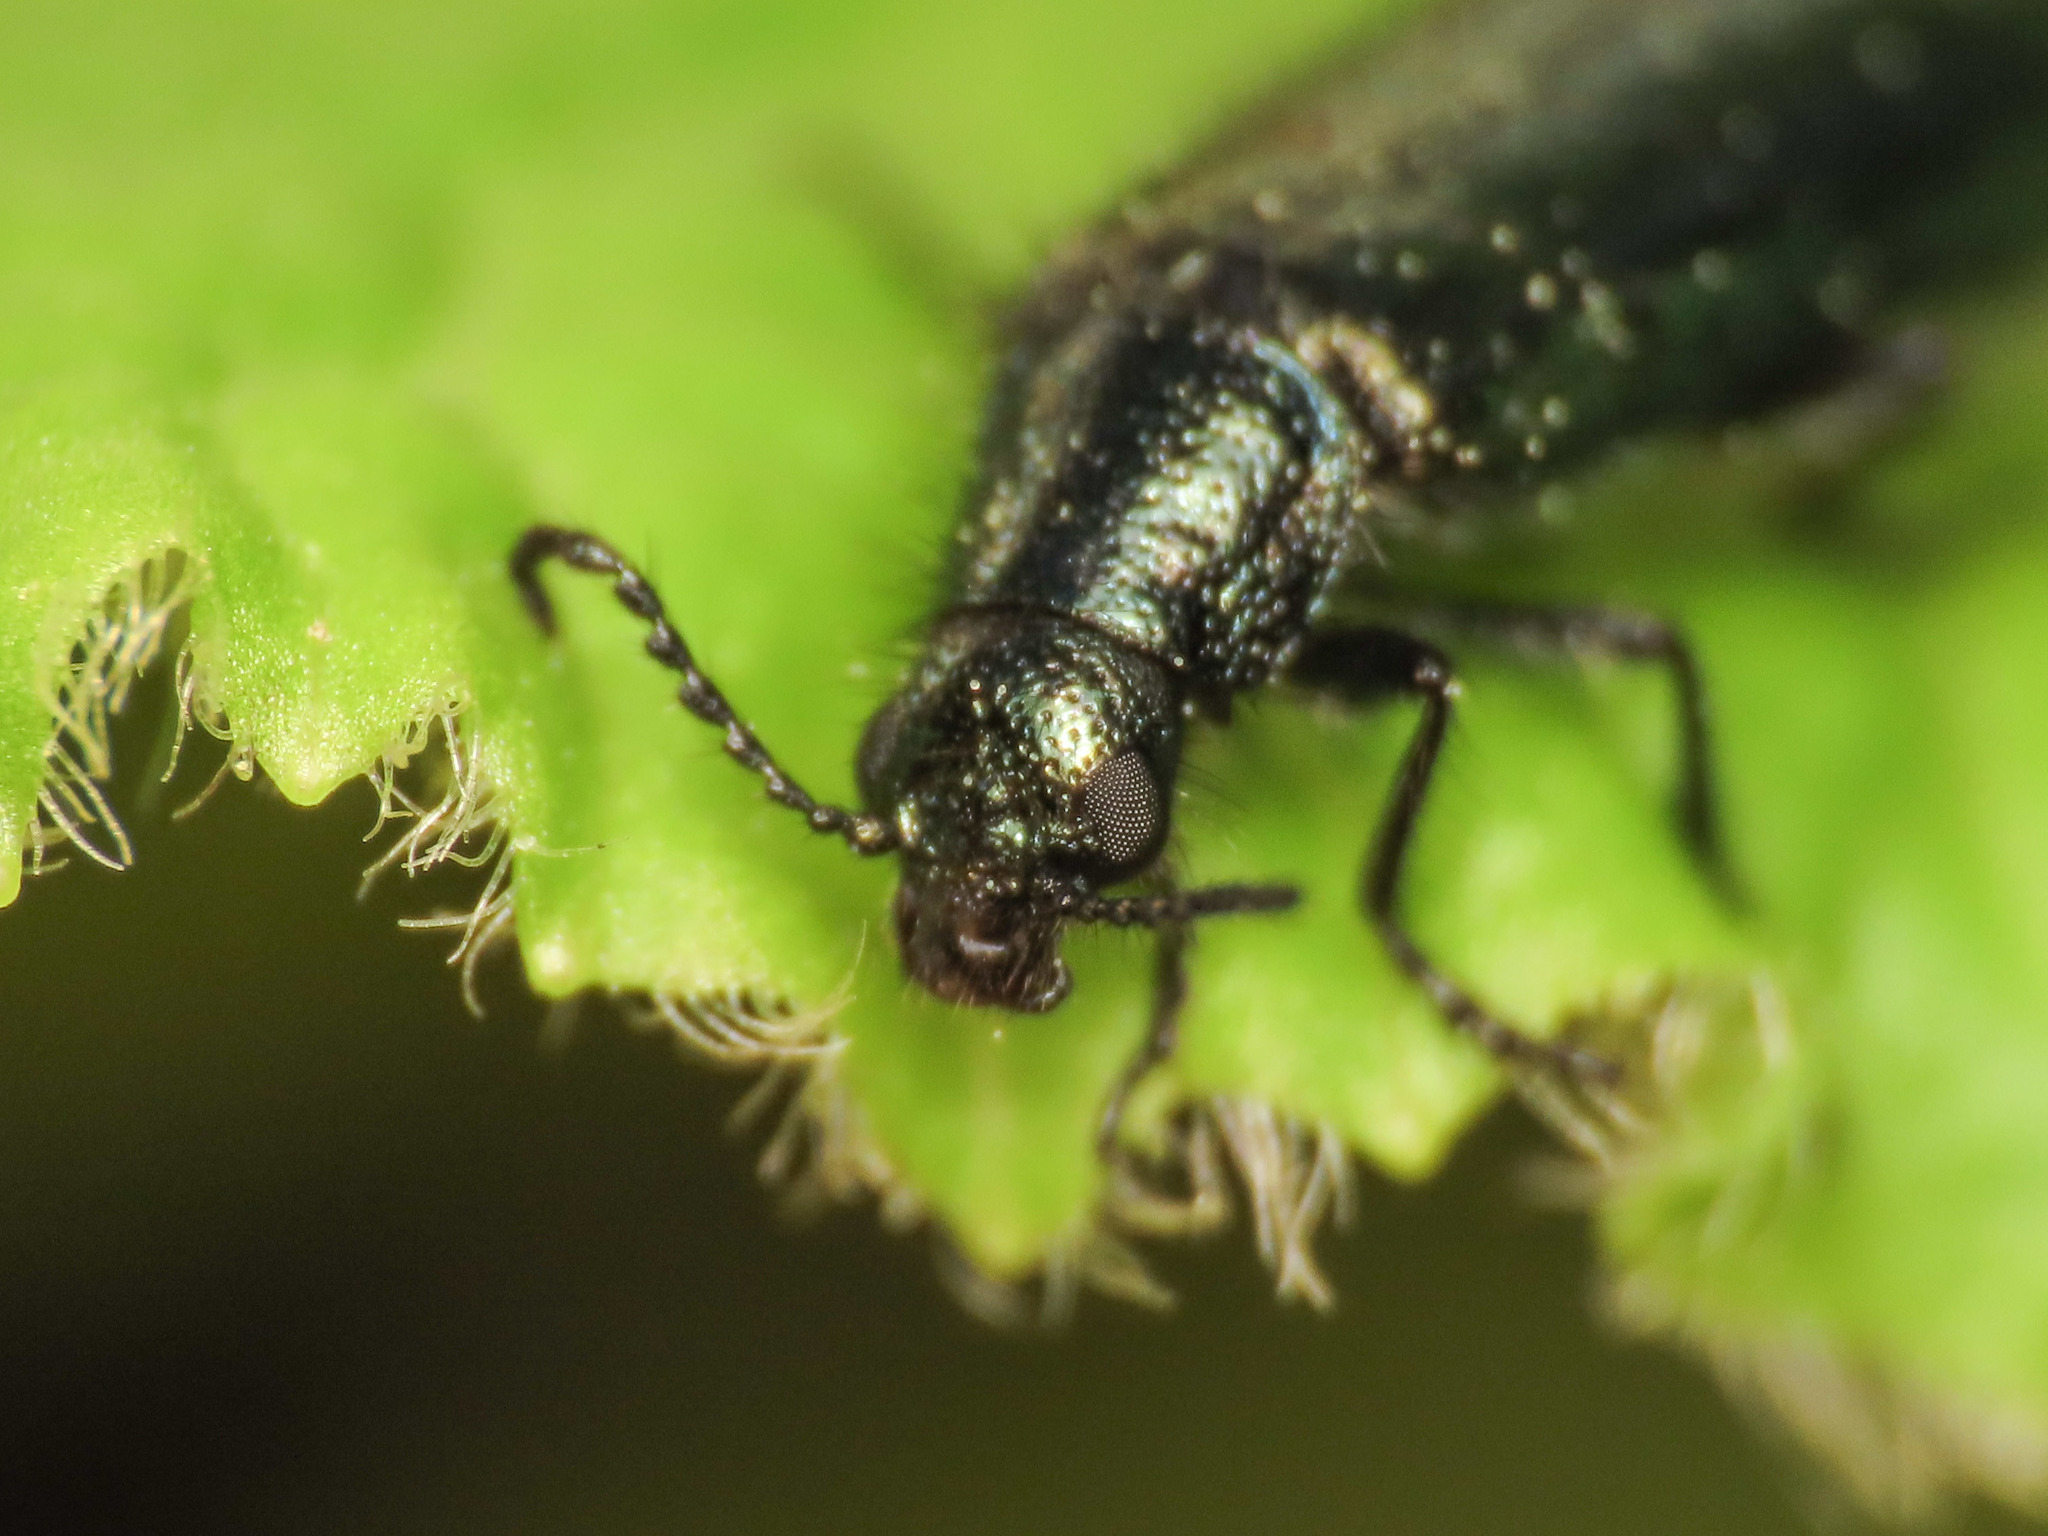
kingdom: Animalia
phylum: Arthropoda
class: Insecta
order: Coleoptera
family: Melyridae
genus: Dasytes
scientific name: Dasytes caeruleus
